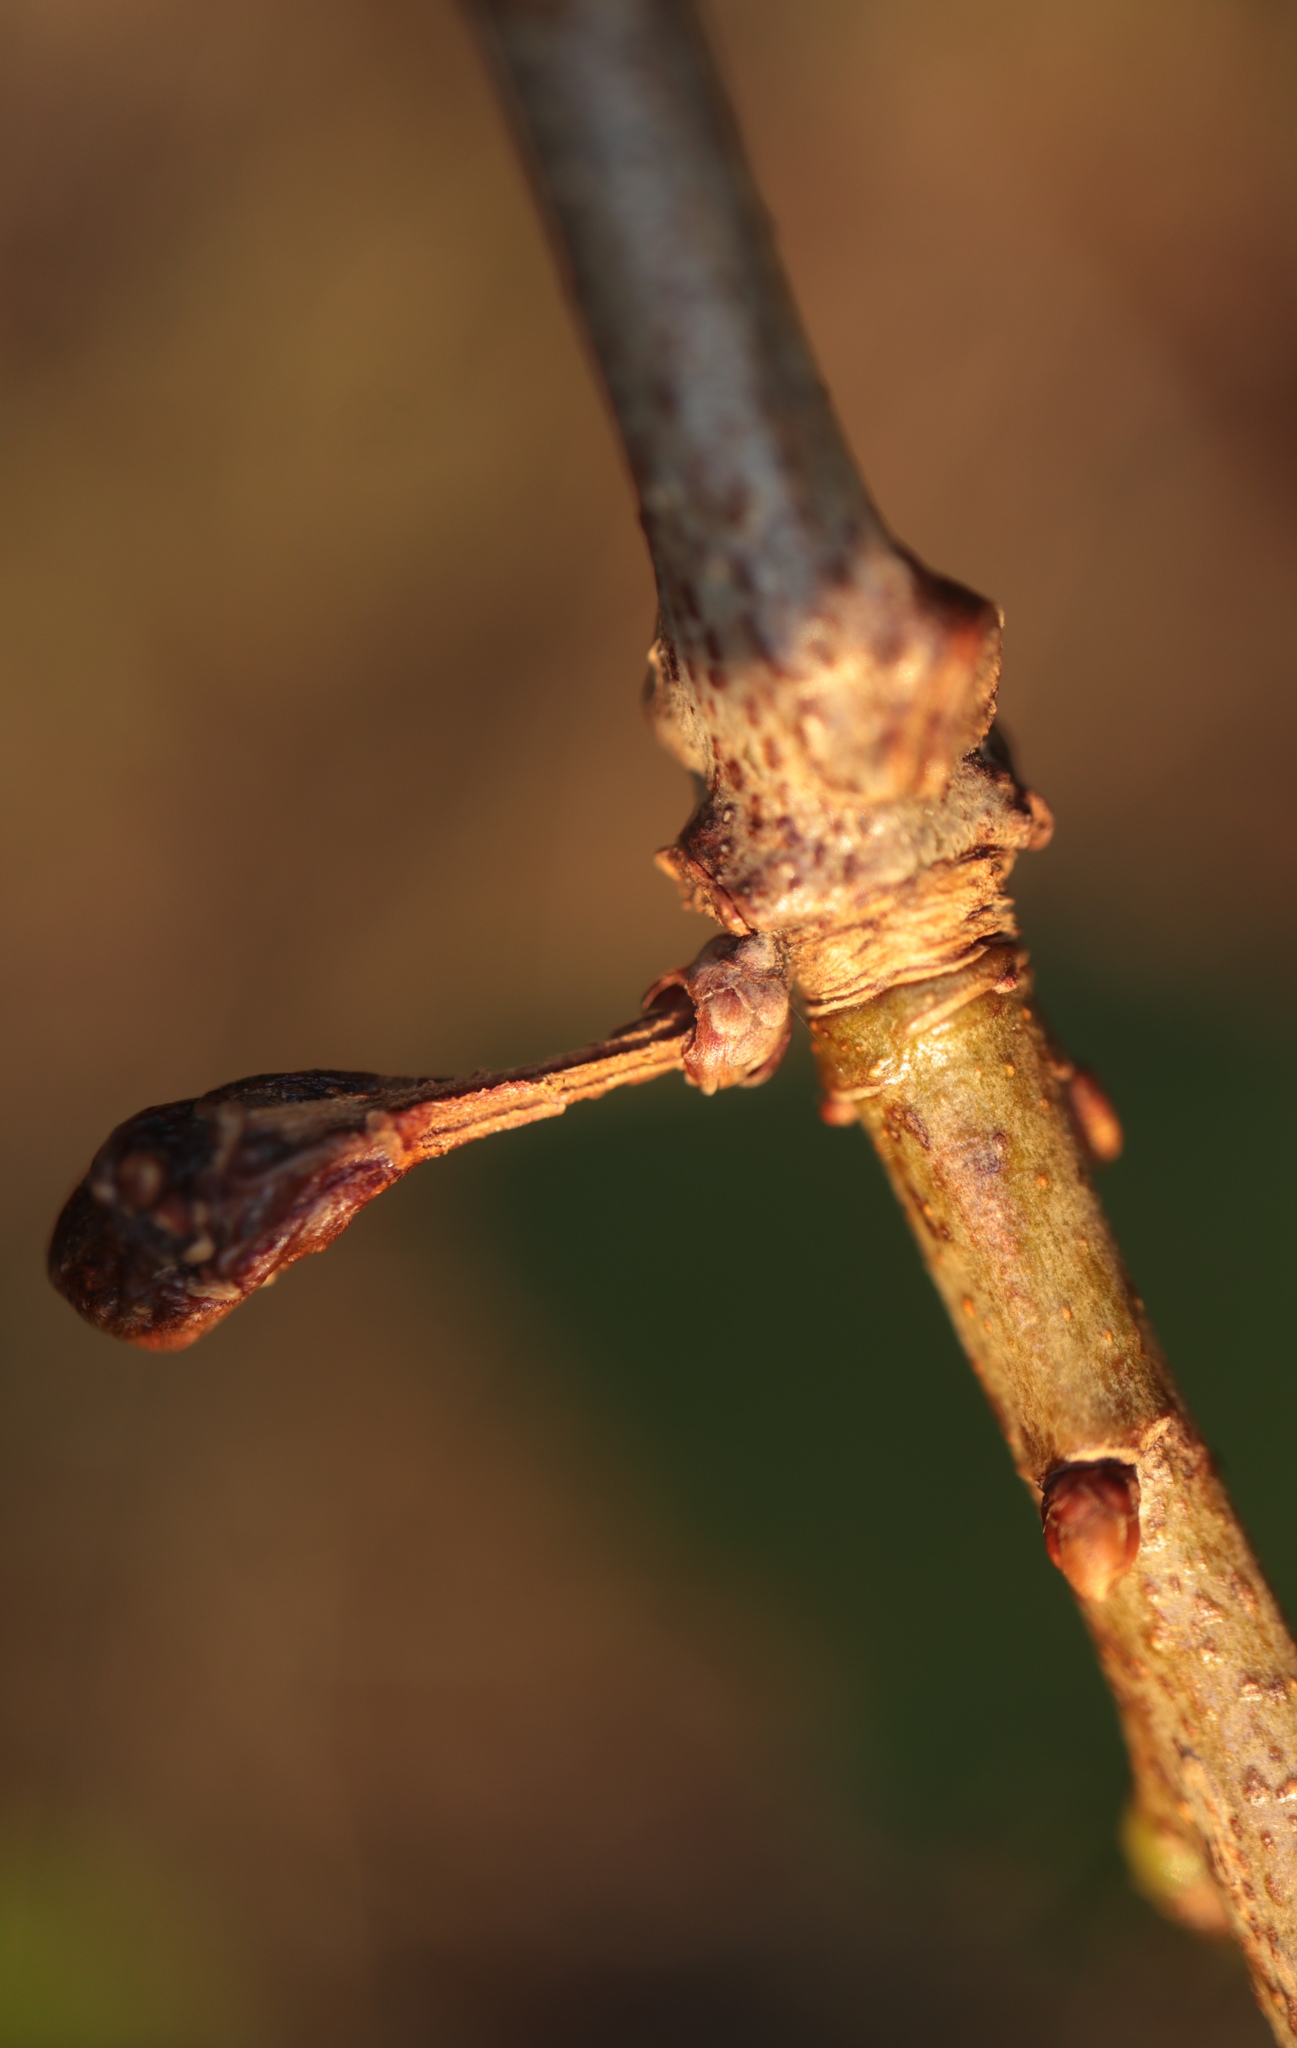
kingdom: Animalia
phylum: Arthropoda
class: Insecta
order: Hymenoptera
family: Cynipidae
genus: Andricus
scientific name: Andricus
